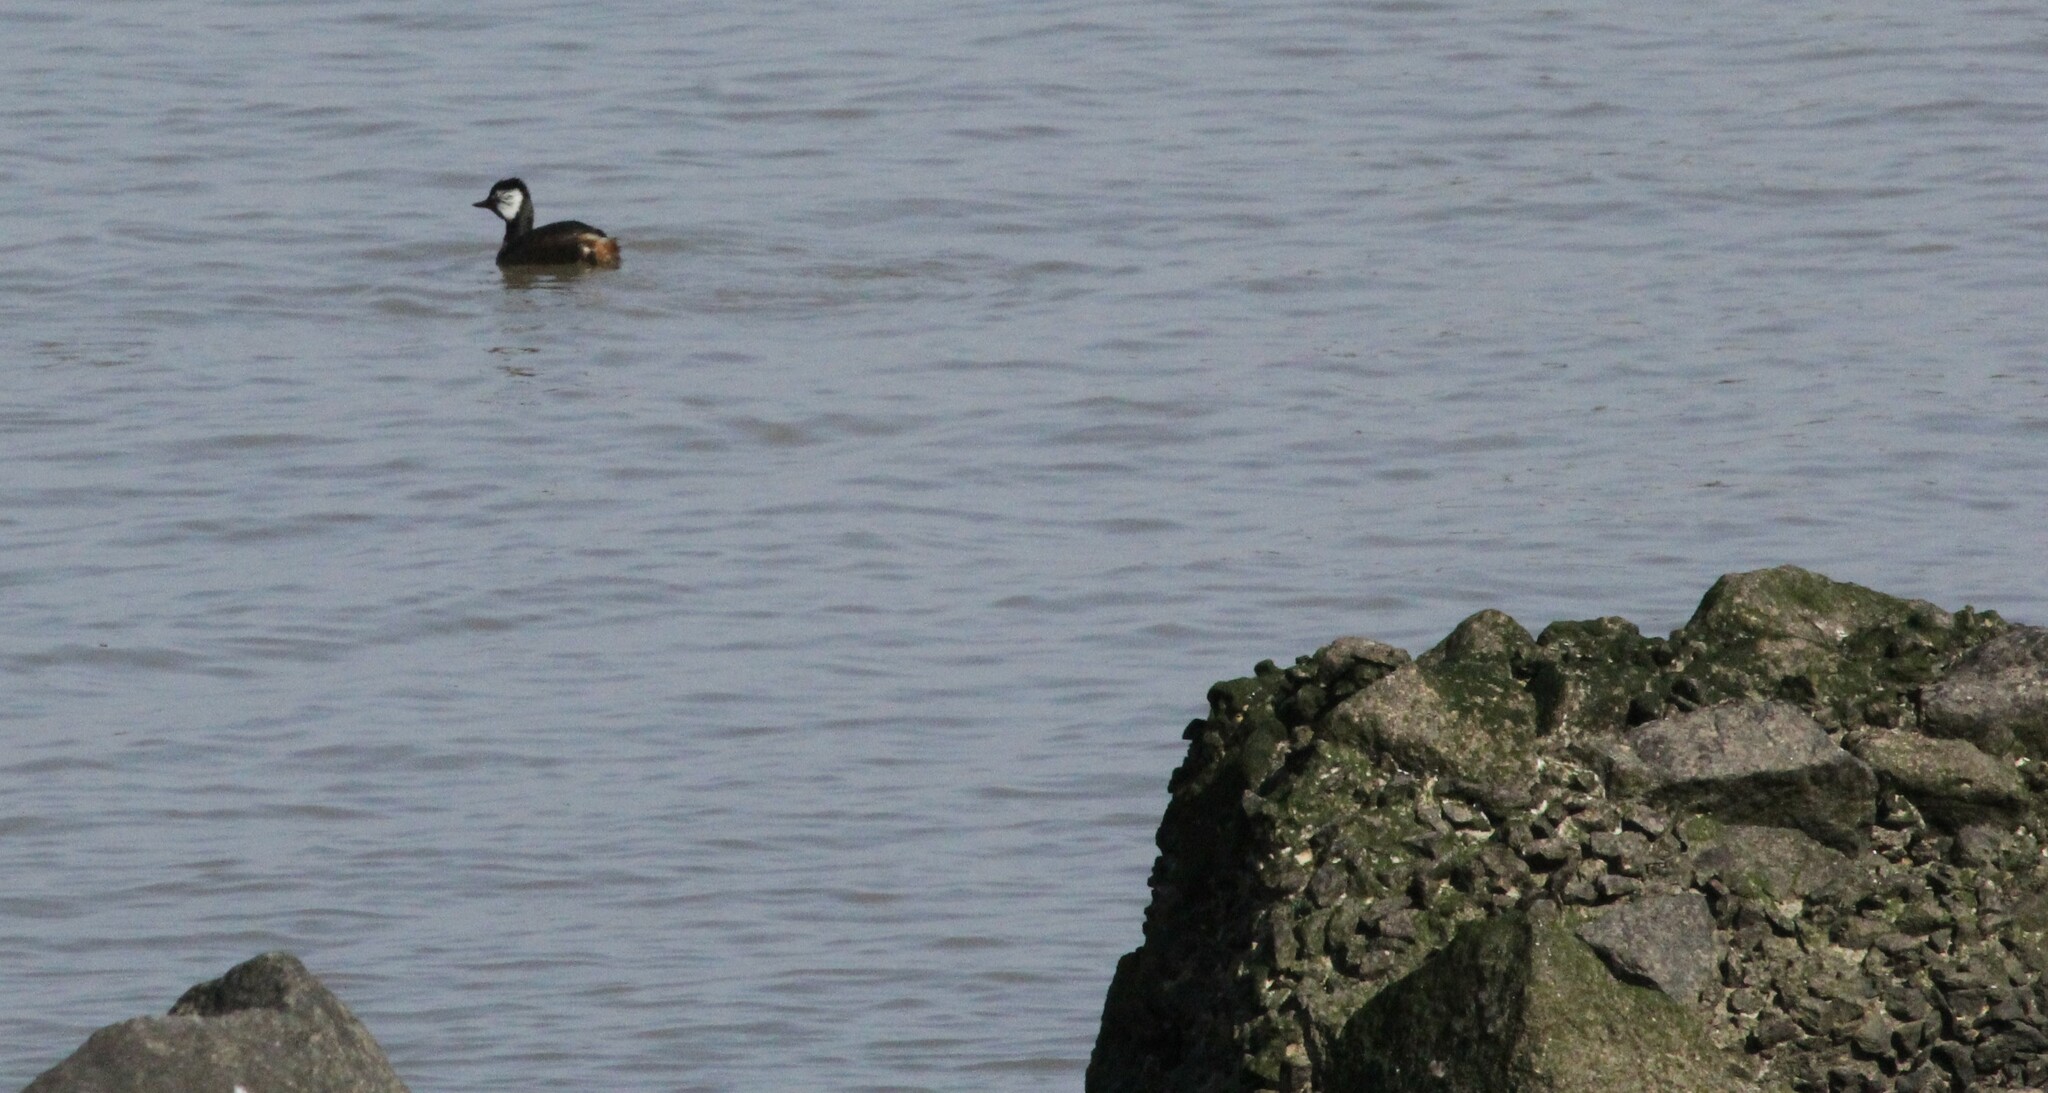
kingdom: Animalia
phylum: Chordata
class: Aves
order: Podicipediformes
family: Podicipedidae
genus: Rollandia
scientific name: Rollandia rolland
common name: White-tufted grebe
